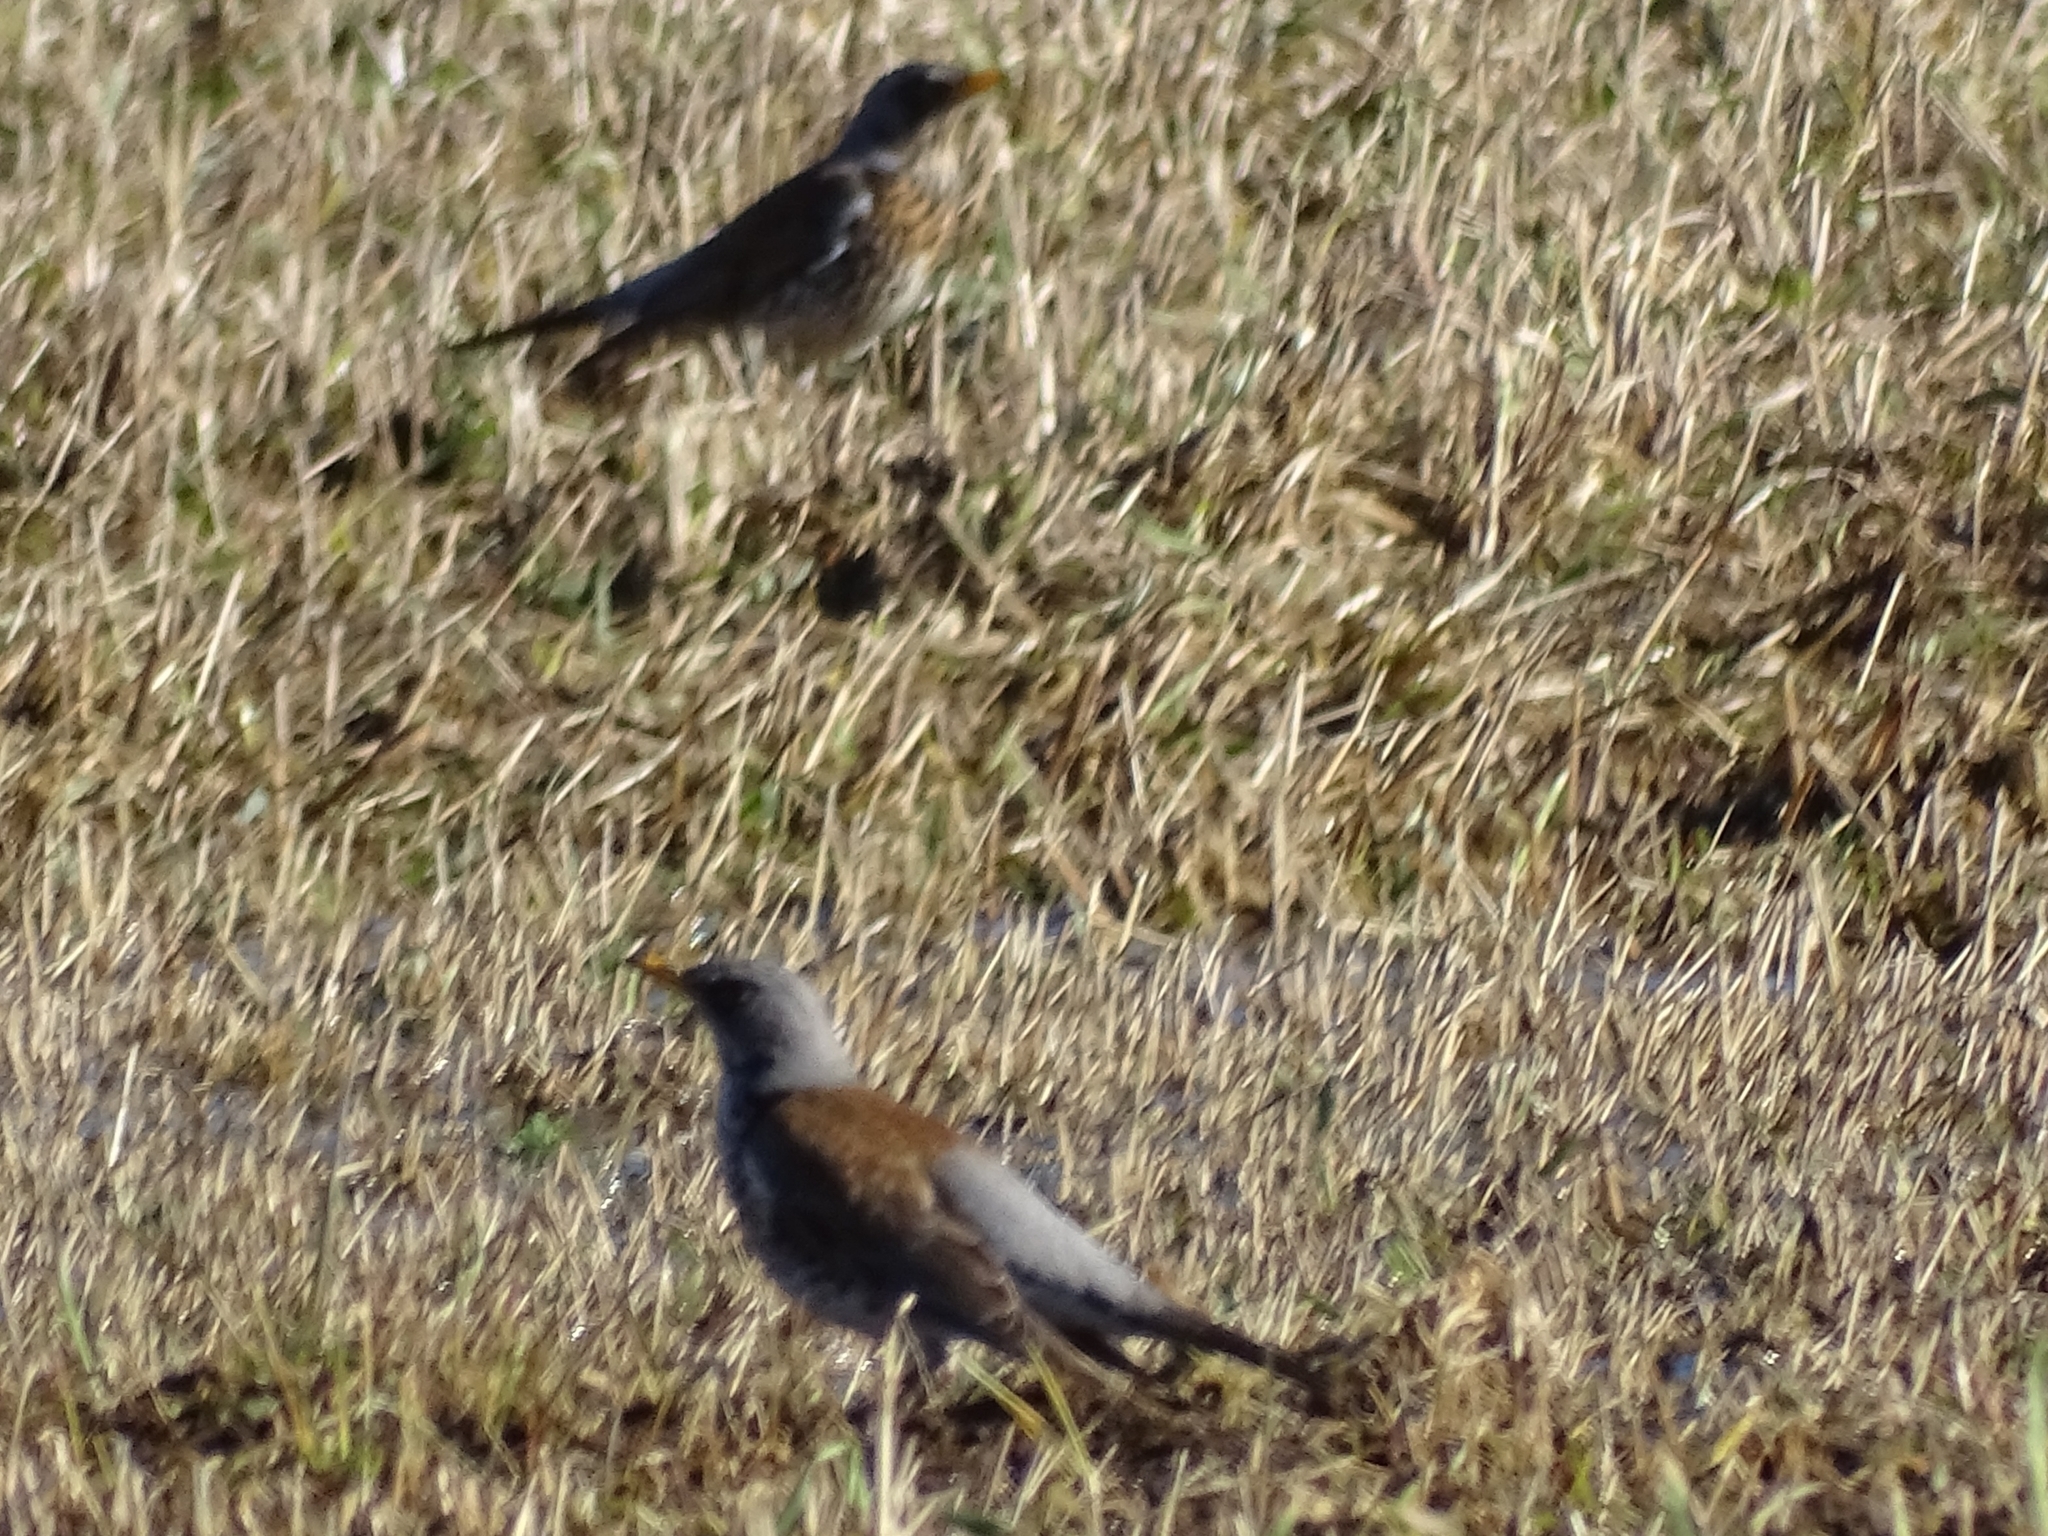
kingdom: Animalia
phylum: Chordata
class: Aves
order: Passeriformes
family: Turdidae
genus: Turdus
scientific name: Turdus pilaris
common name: Fieldfare
